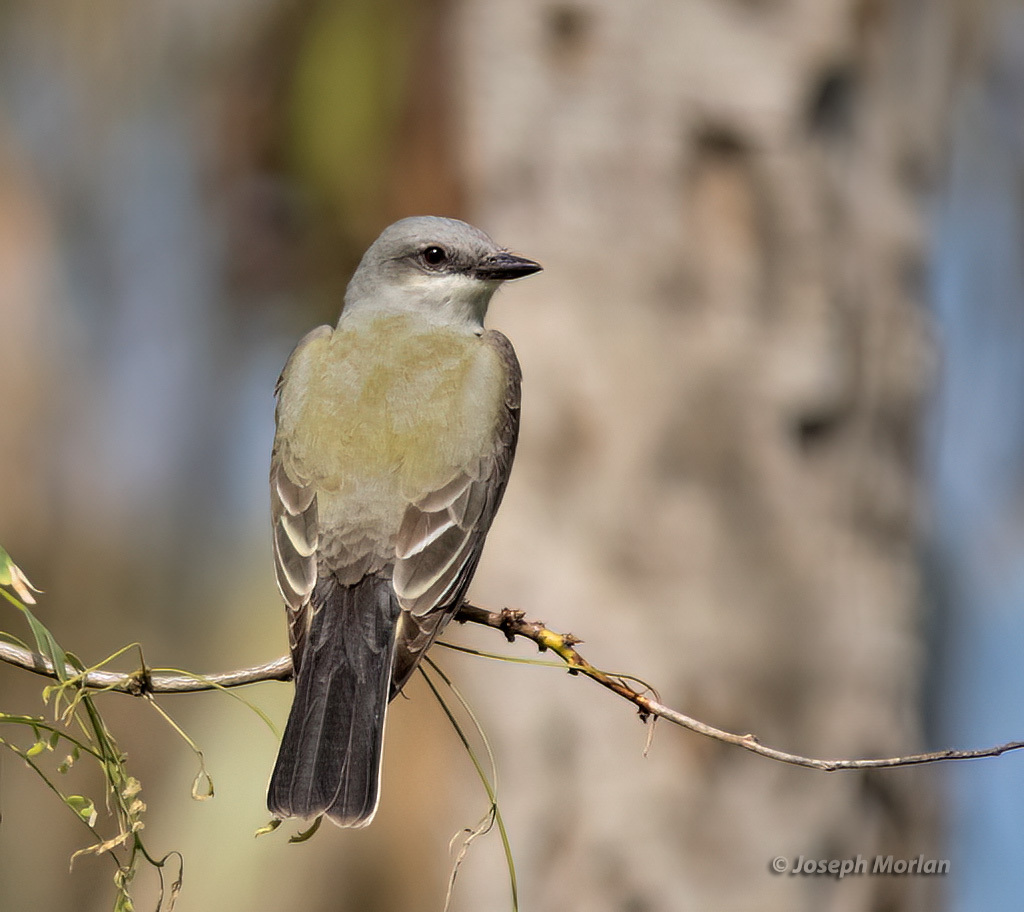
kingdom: Animalia
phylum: Chordata
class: Aves
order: Passeriformes
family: Tyrannidae
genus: Tyrannus
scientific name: Tyrannus verticalis
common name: Western kingbird
